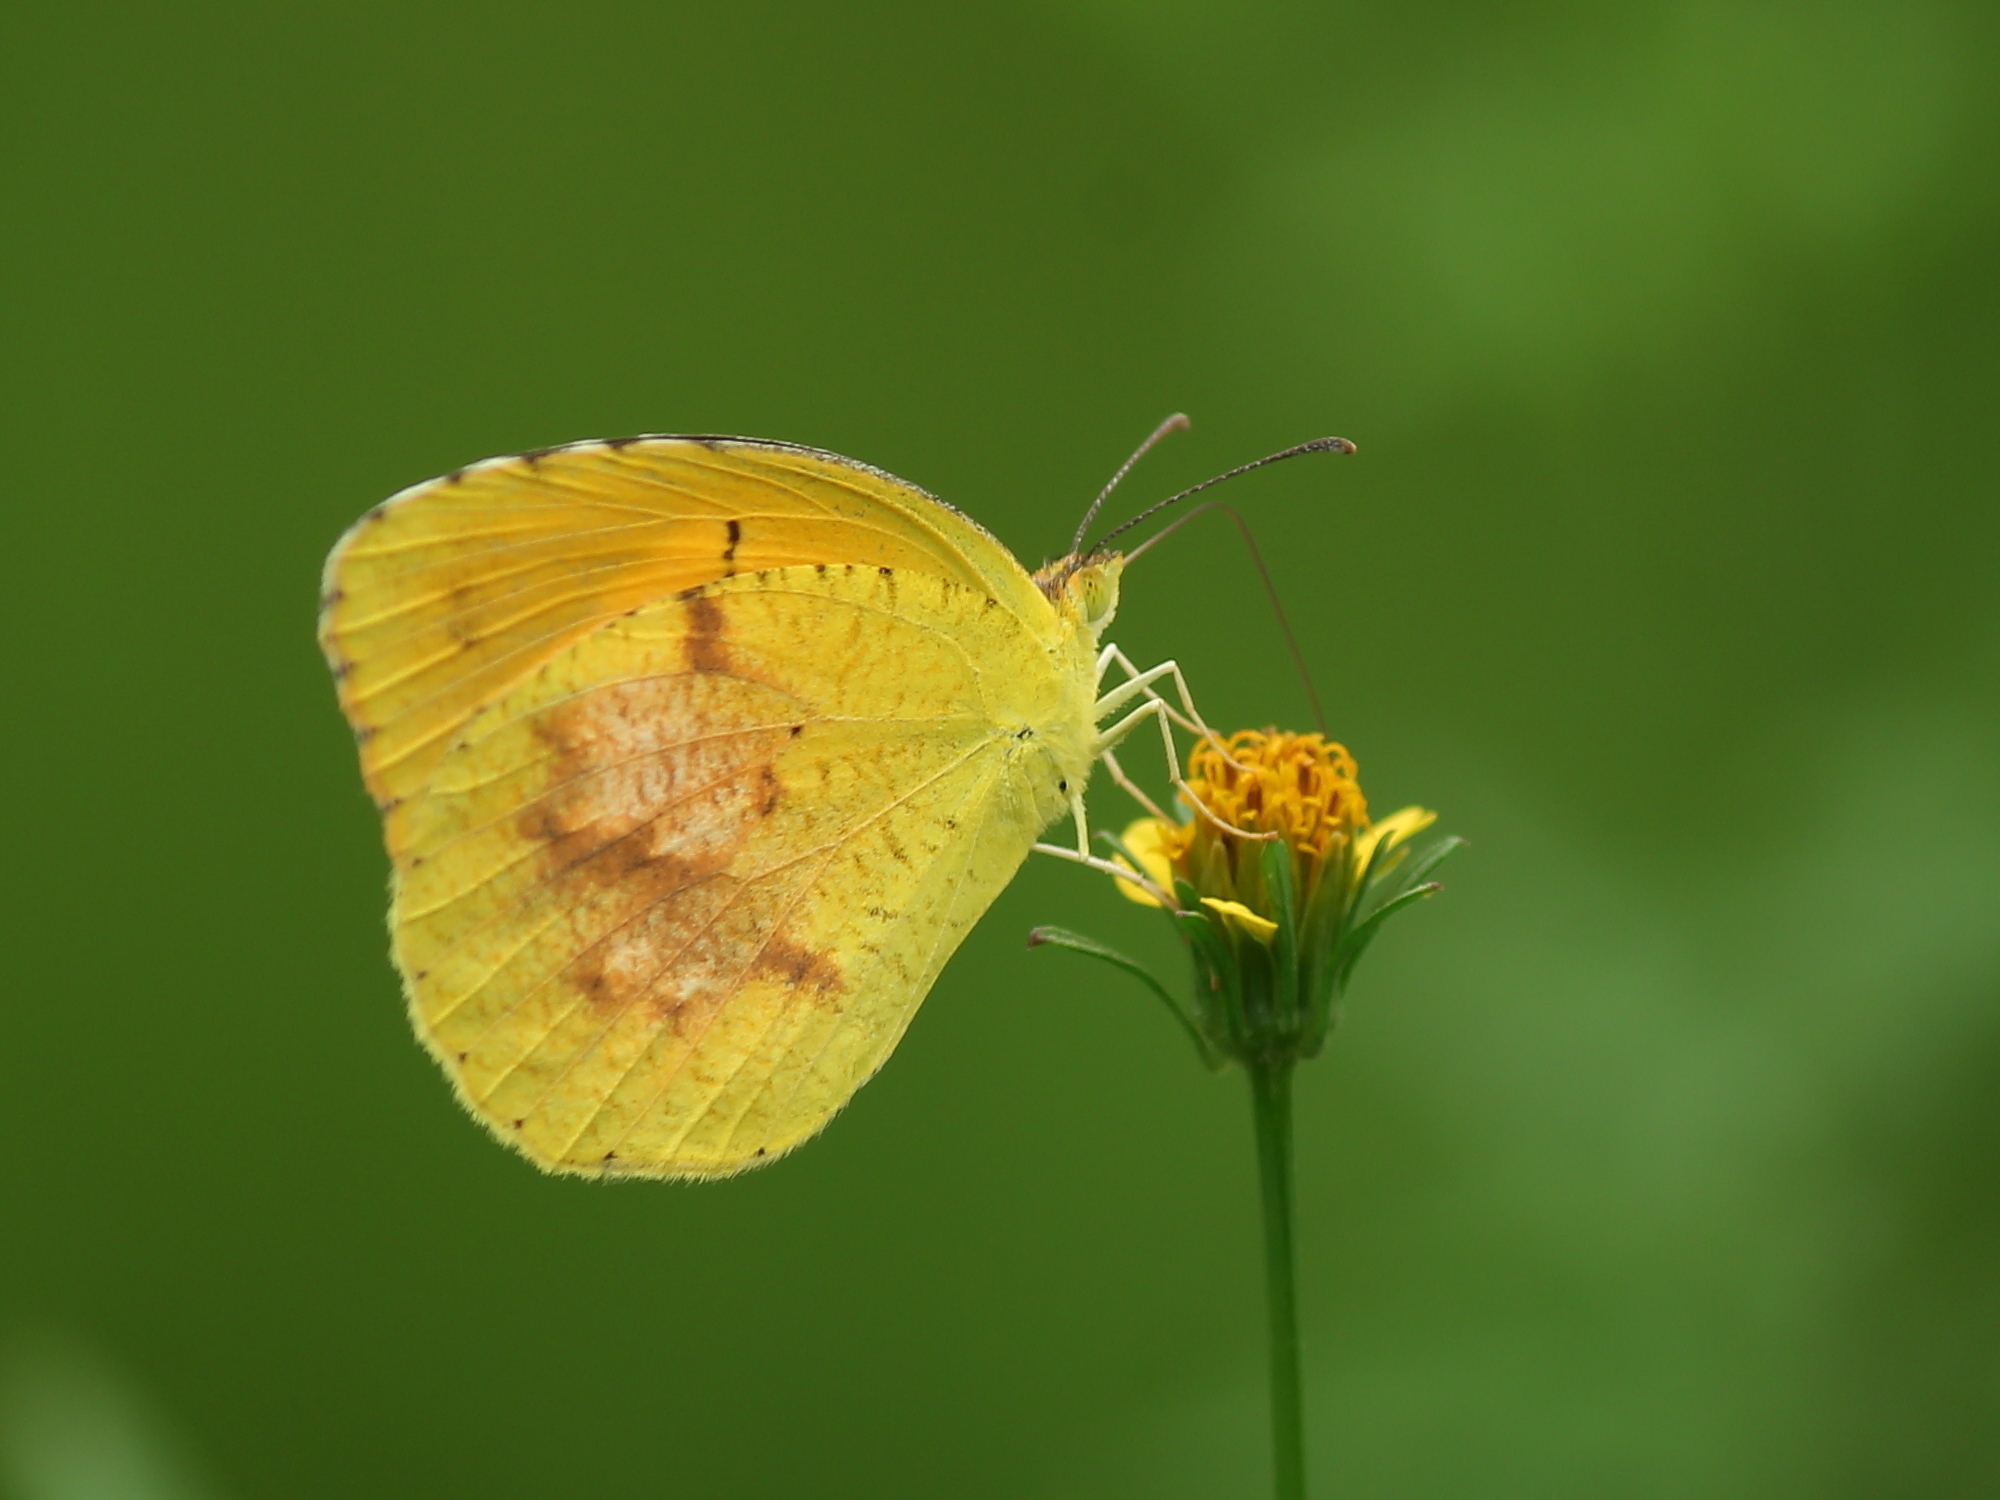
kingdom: Animalia
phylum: Arthropoda
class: Insecta
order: Lepidoptera
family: Pieridae
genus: Abaeis
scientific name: Abaeis nicippe
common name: Sleepy orange
